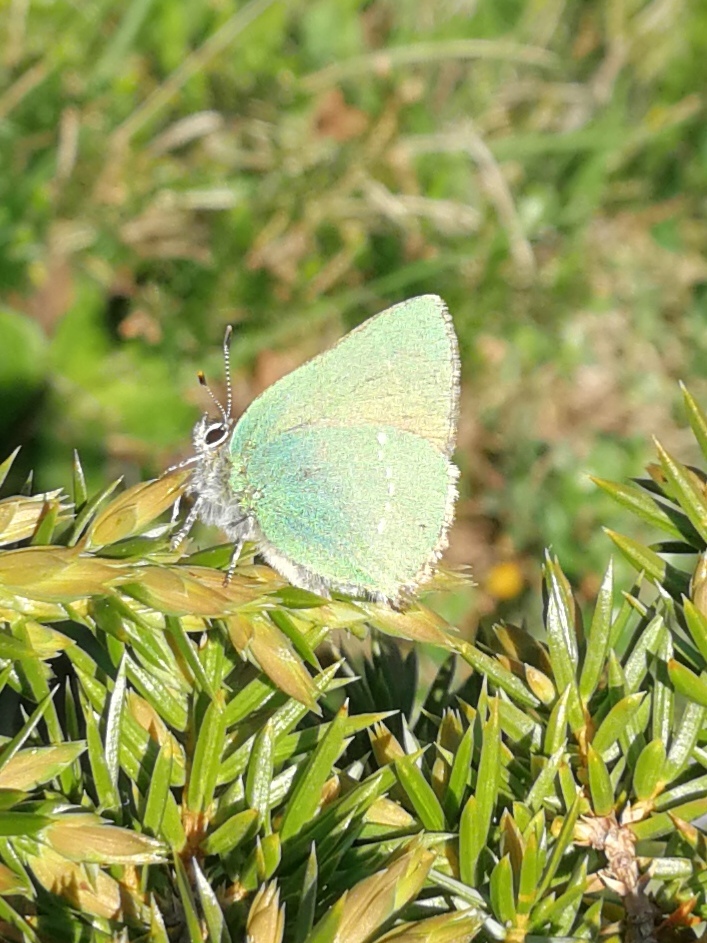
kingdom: Animalia
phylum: Arthropoda
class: Insecta
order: Lepidoptera
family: Lycaenidae
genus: Callophrys
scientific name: Callophrys rubi
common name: Green hairstreak
